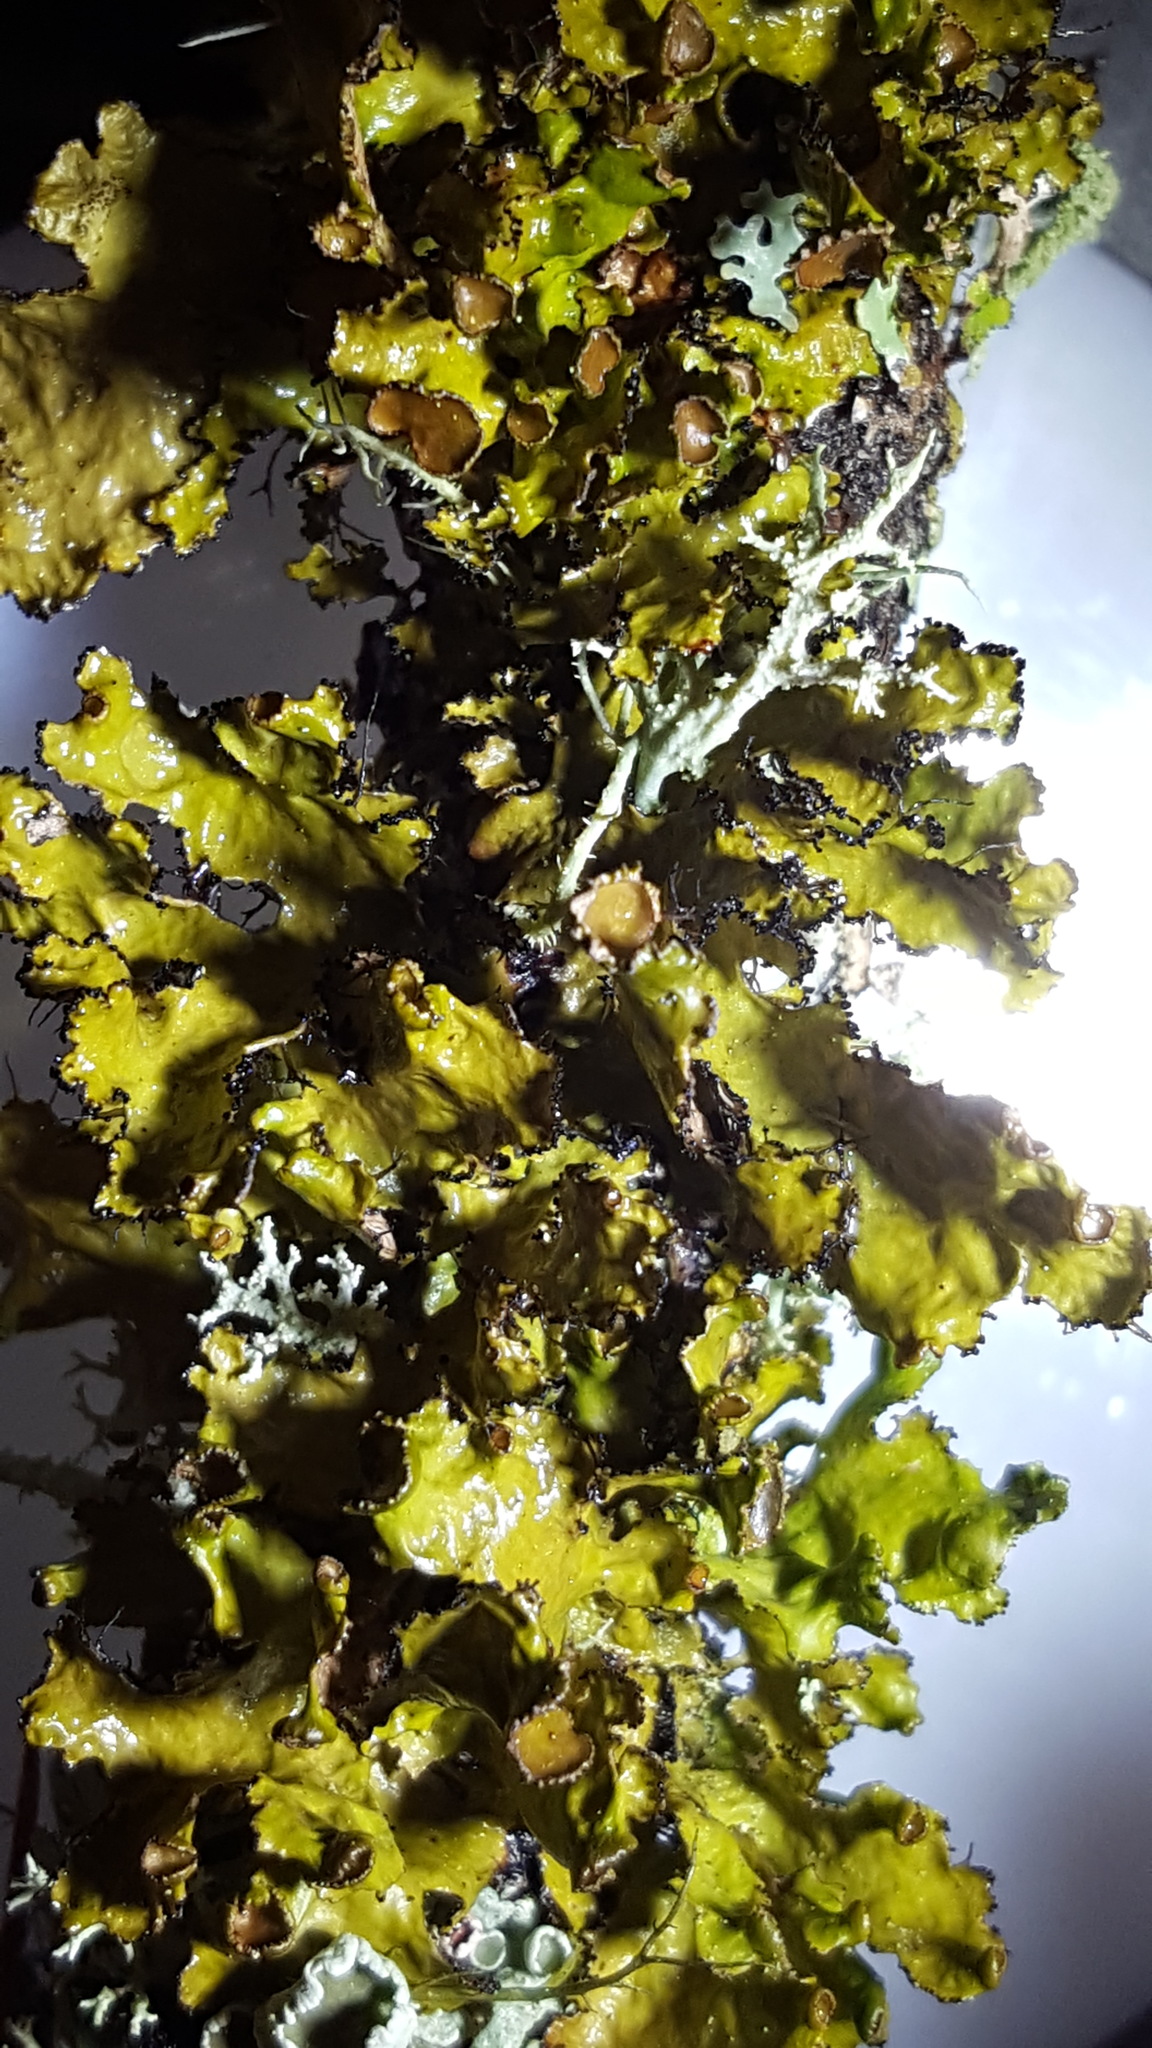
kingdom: Fungi
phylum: Ascomycota
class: Lecanoromycetes
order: Lecanorales
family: Parmeliaceae
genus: Nephromopsis
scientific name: Nephromopsis americana
